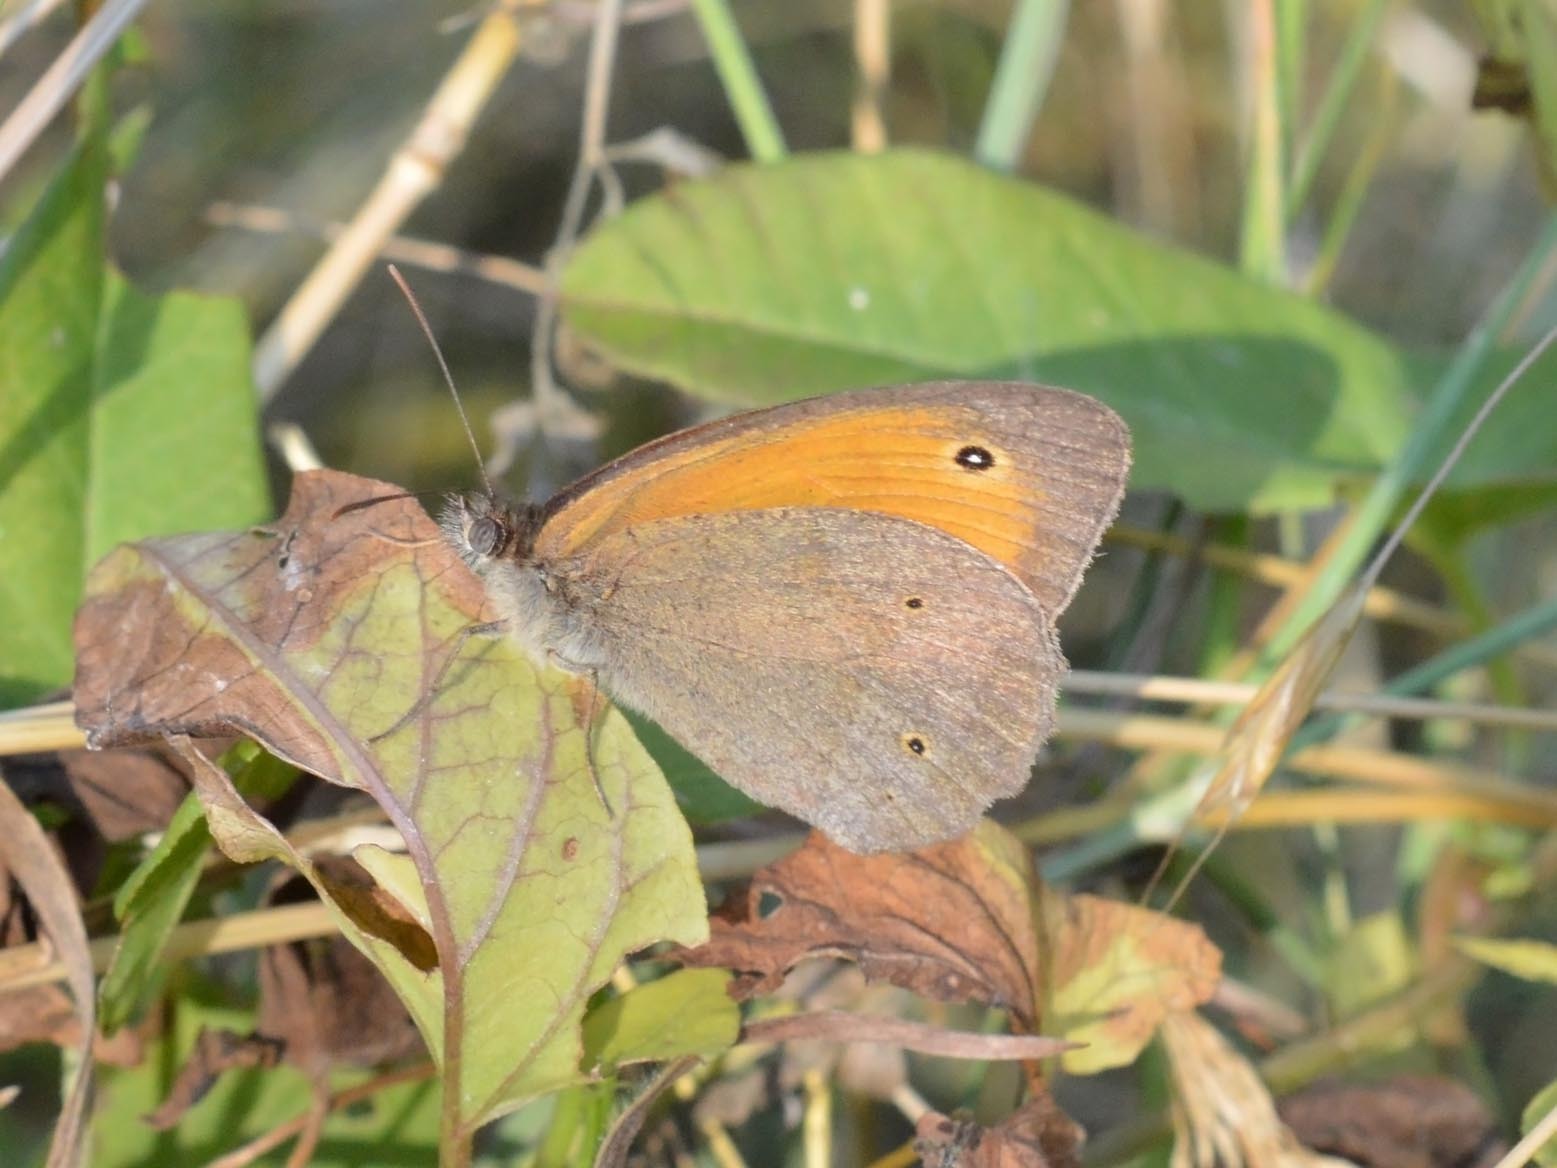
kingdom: Animalia
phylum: Arthropoda
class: Insecta
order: Lepidoptera
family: Nymphalidae
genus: Maniola
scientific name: Maniola jurtina
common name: Meadow brown
